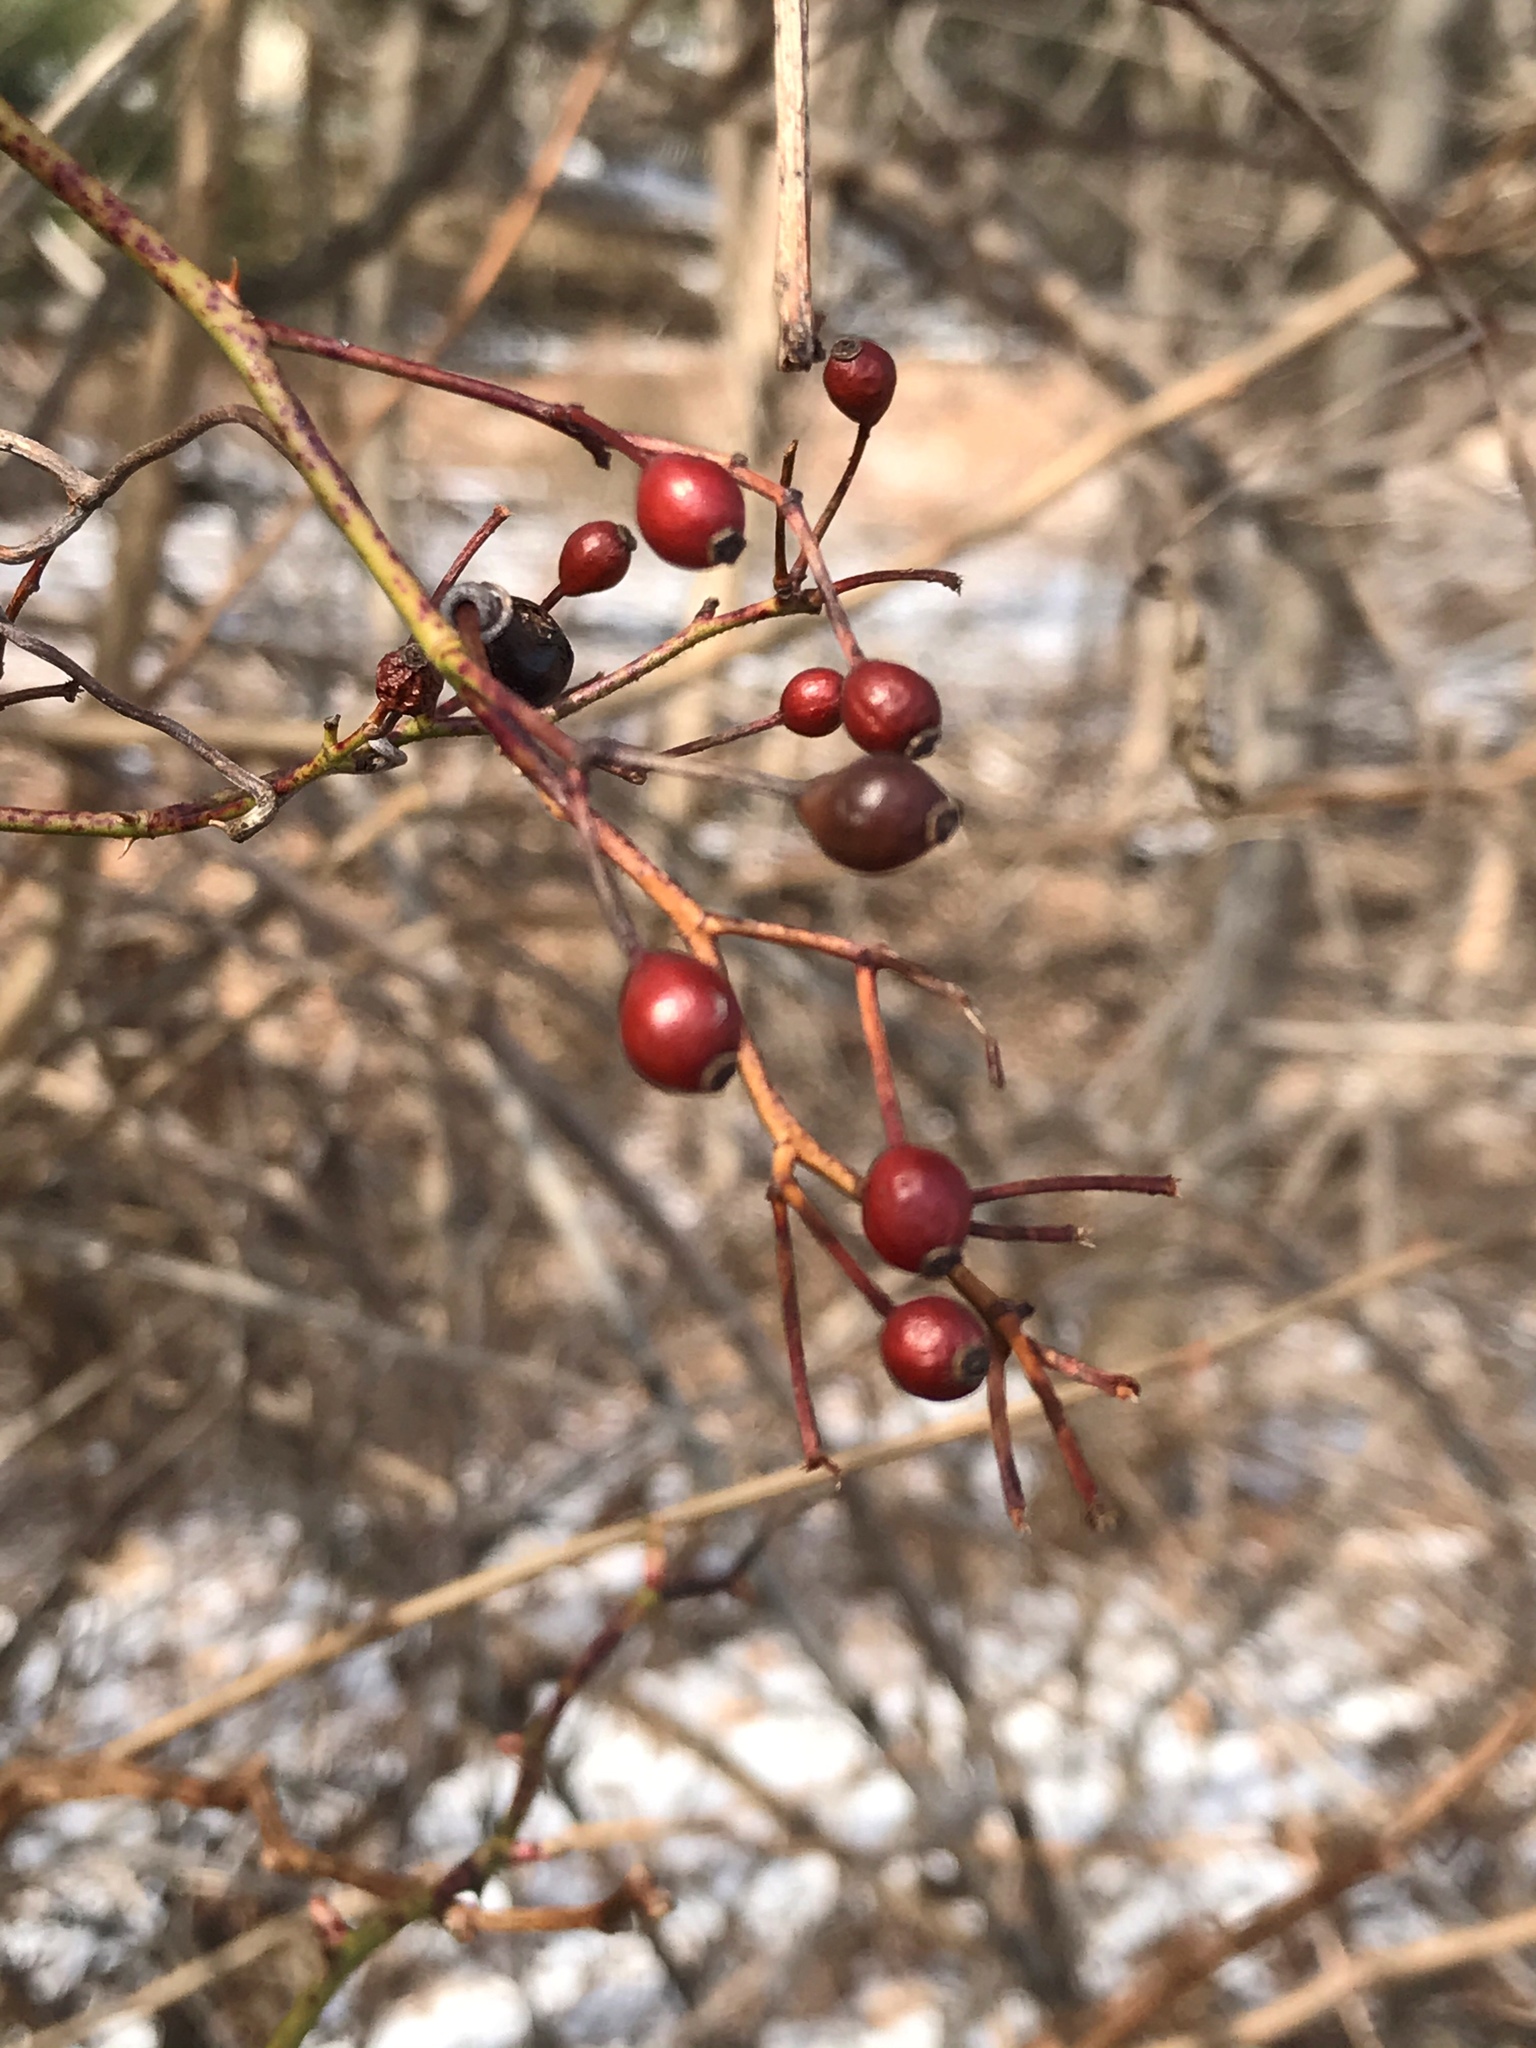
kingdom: Plantae
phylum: Tracheophyta
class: Magnoliopsida
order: Rosales
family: Rosaceae
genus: Rosa
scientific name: Rosa multiflora
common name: Multiflora rose
